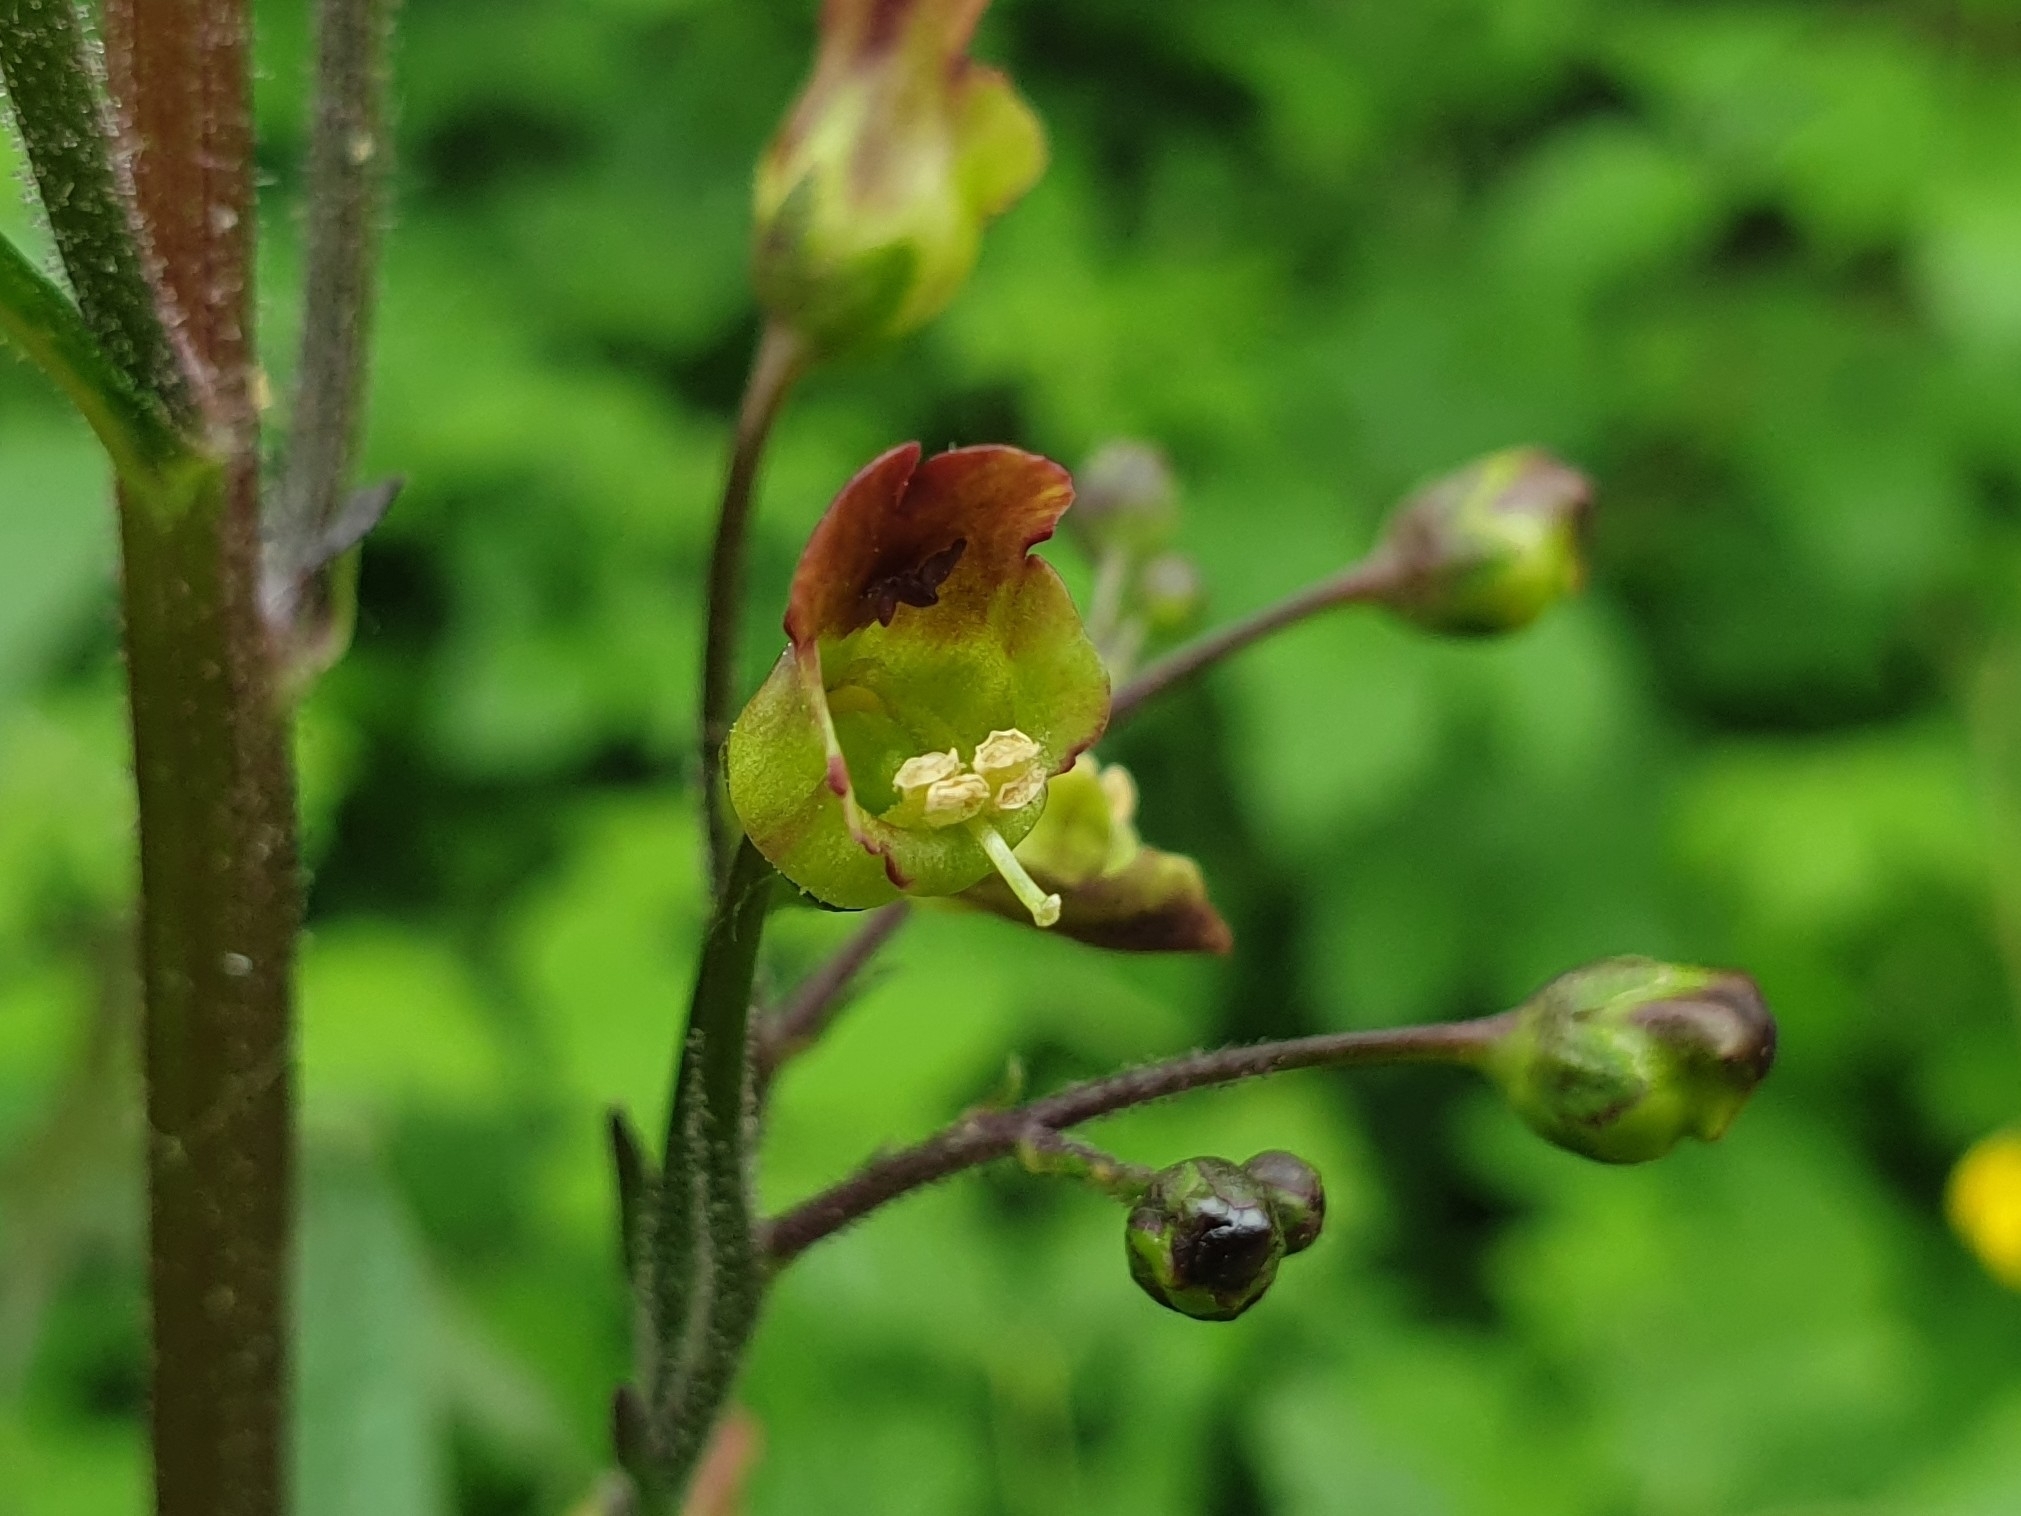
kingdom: Plantae
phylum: Tracheophyta
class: Magnoliopsida
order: Lamiales
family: Scrophulariaceae
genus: Scrophularia
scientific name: Scrophularia nodosa
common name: Common figwort
